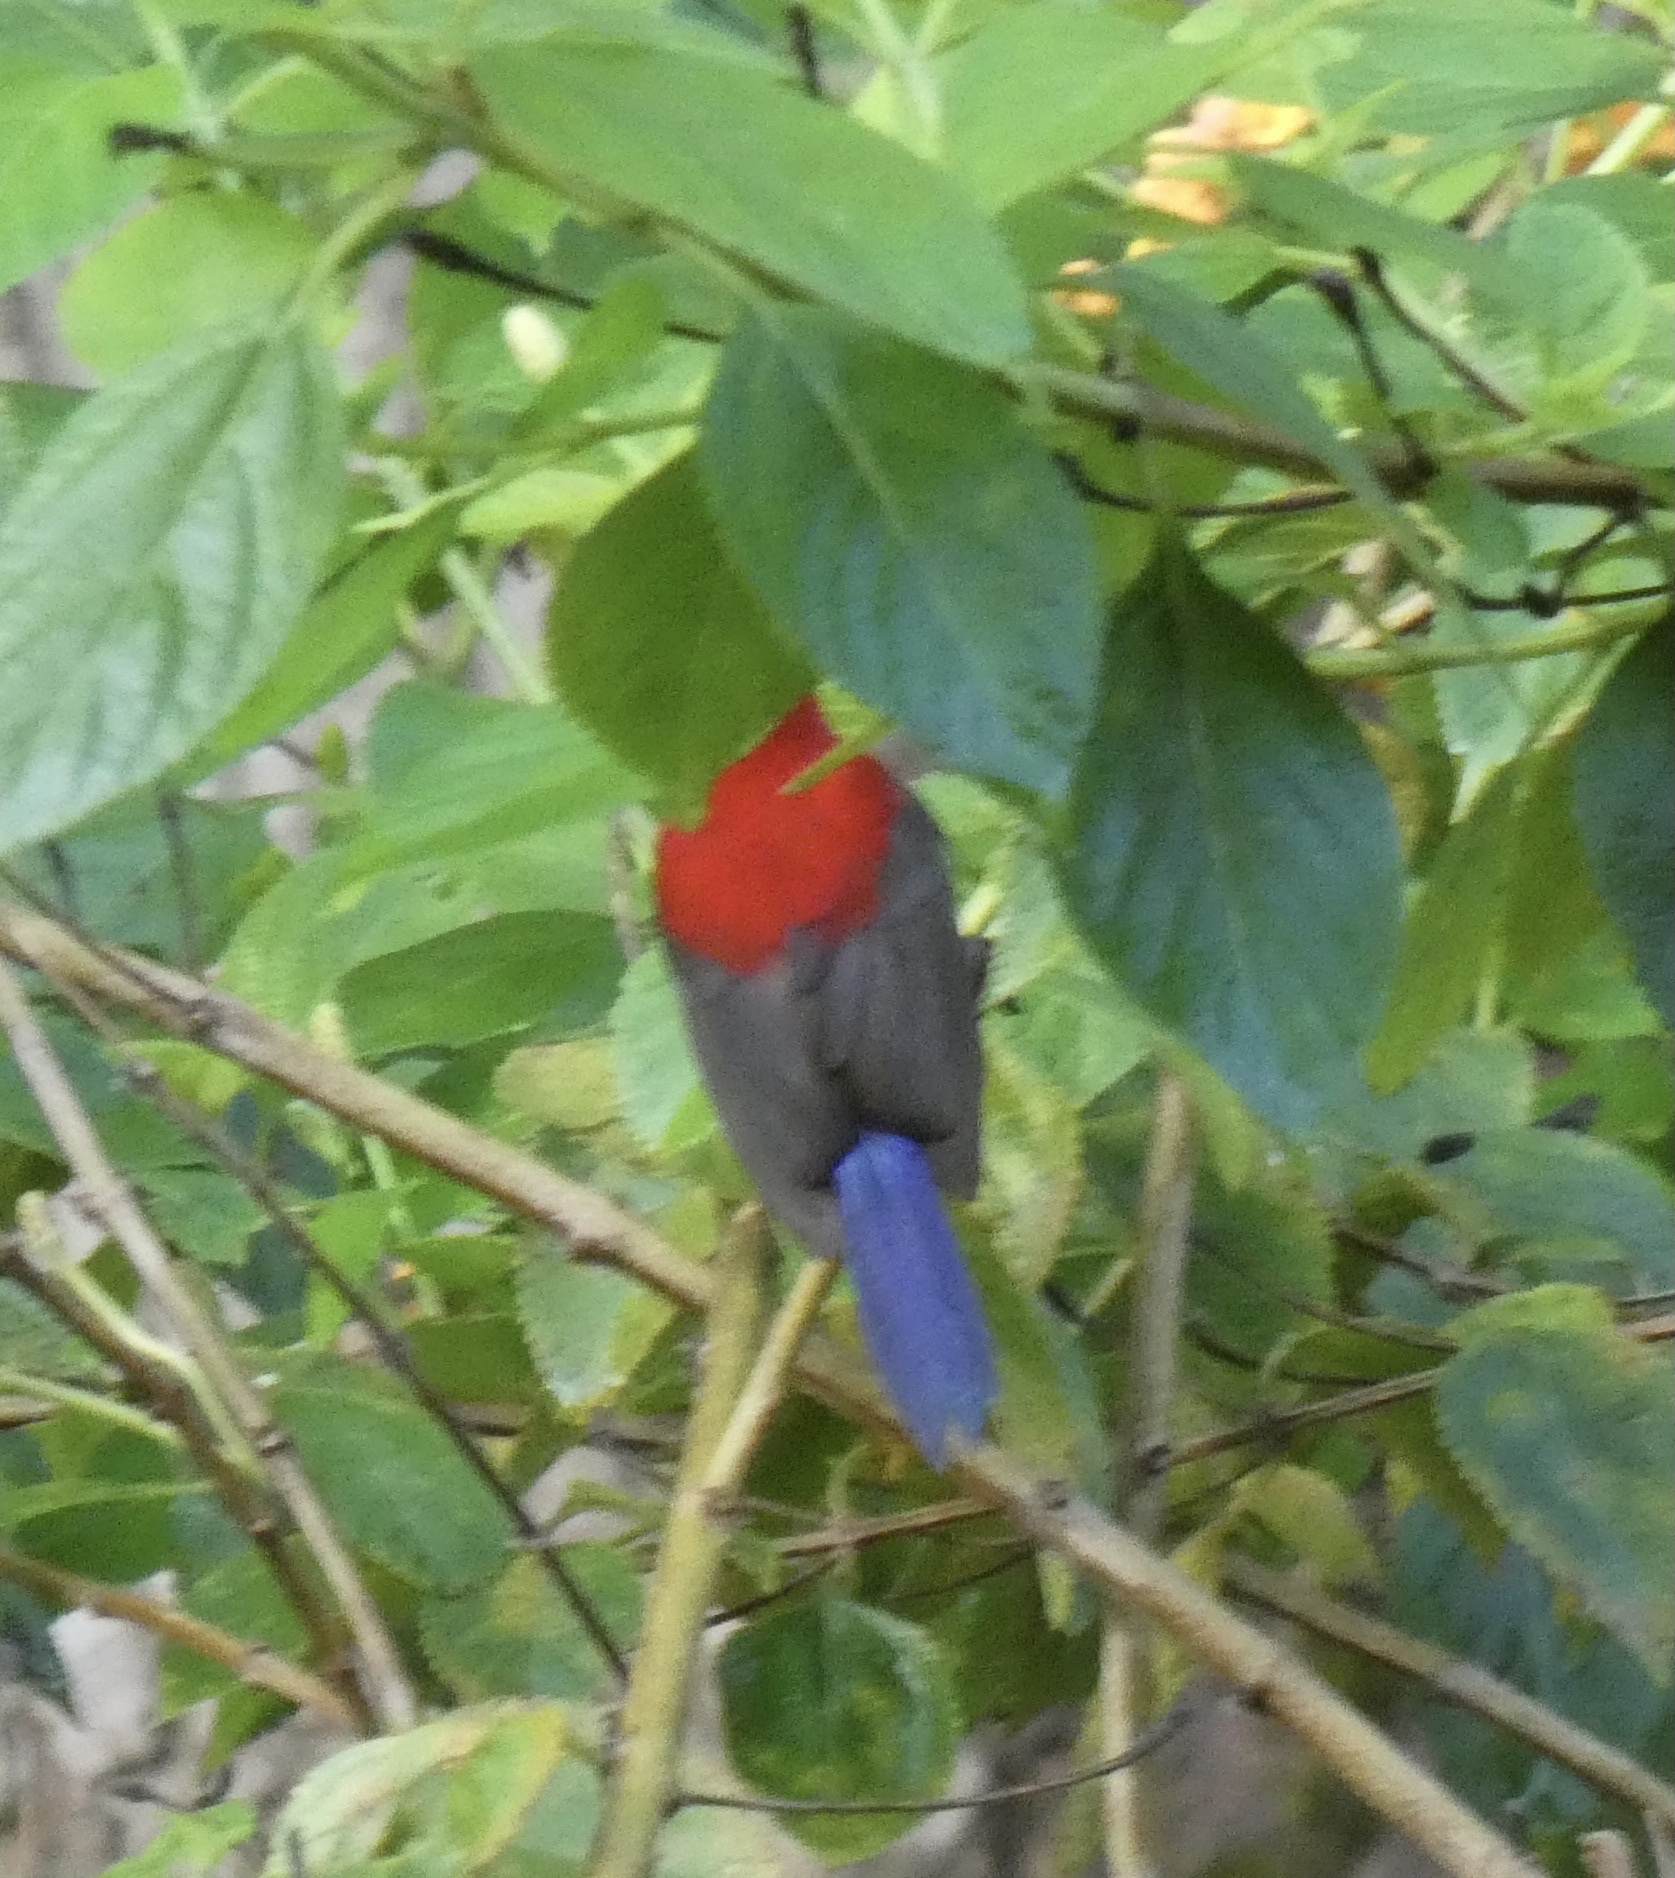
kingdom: Animalia
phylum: Chordata
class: Aves
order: Passeriformes
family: Nectariniidae
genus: Aethopyga
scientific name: Aethopyga siparaja
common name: Crimson sunbird
